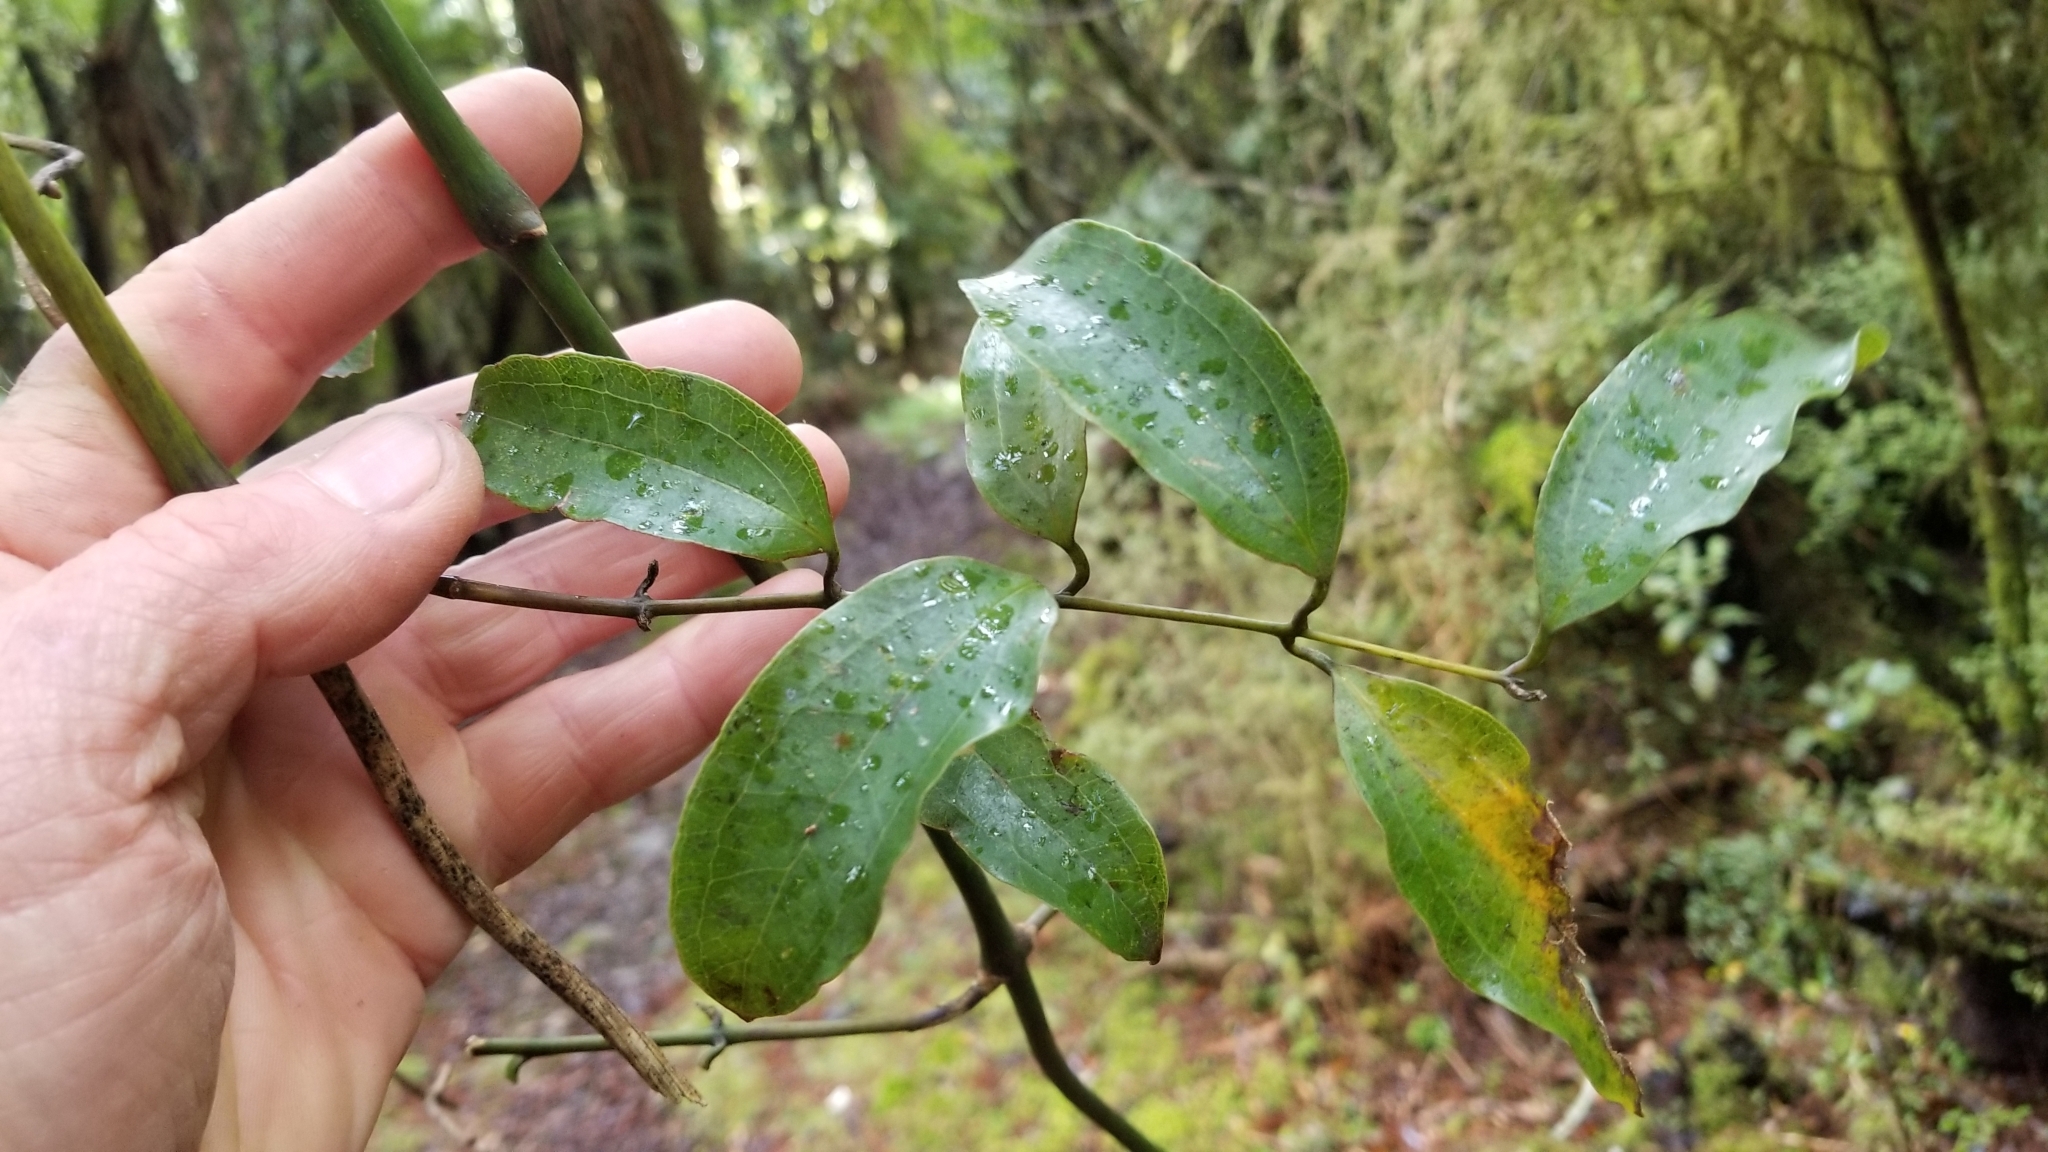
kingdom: Plantae
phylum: Tracheophyta
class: Liliopsida
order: Liliales
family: Ripogonaceae
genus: Ripogonum
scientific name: Ripogonum scandens
